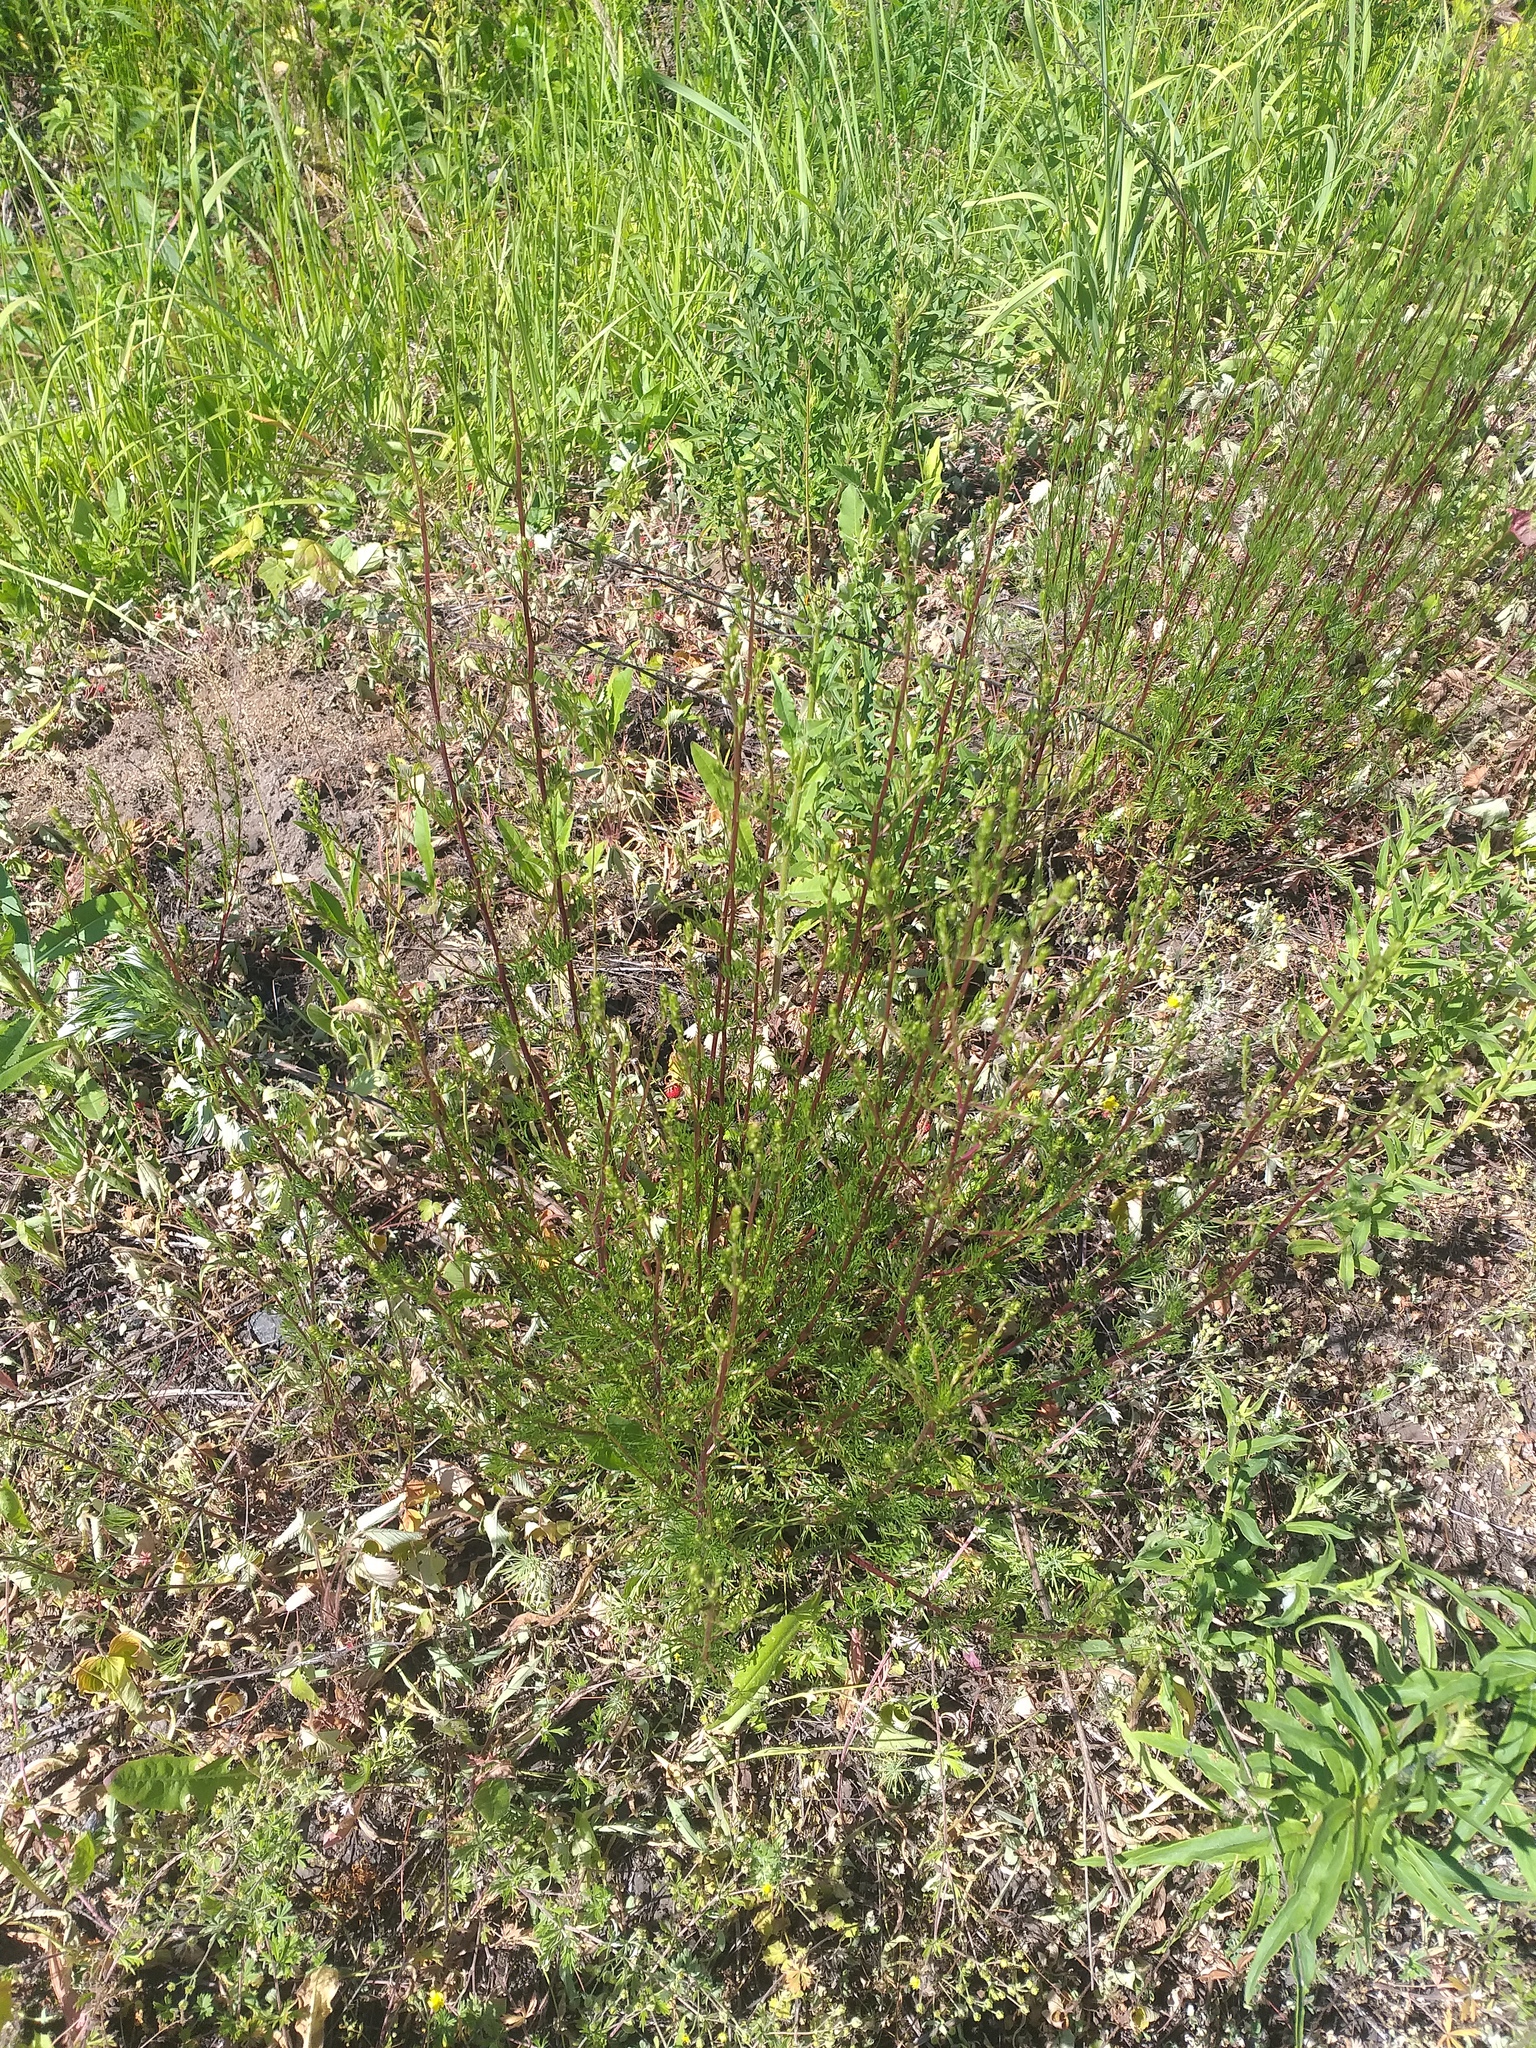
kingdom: Plantae
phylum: Tracheophyta
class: Magnoliopsida
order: Asterales
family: Asteraceae
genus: Artemisia
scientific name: Artemisia campestris
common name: Field wormwood
